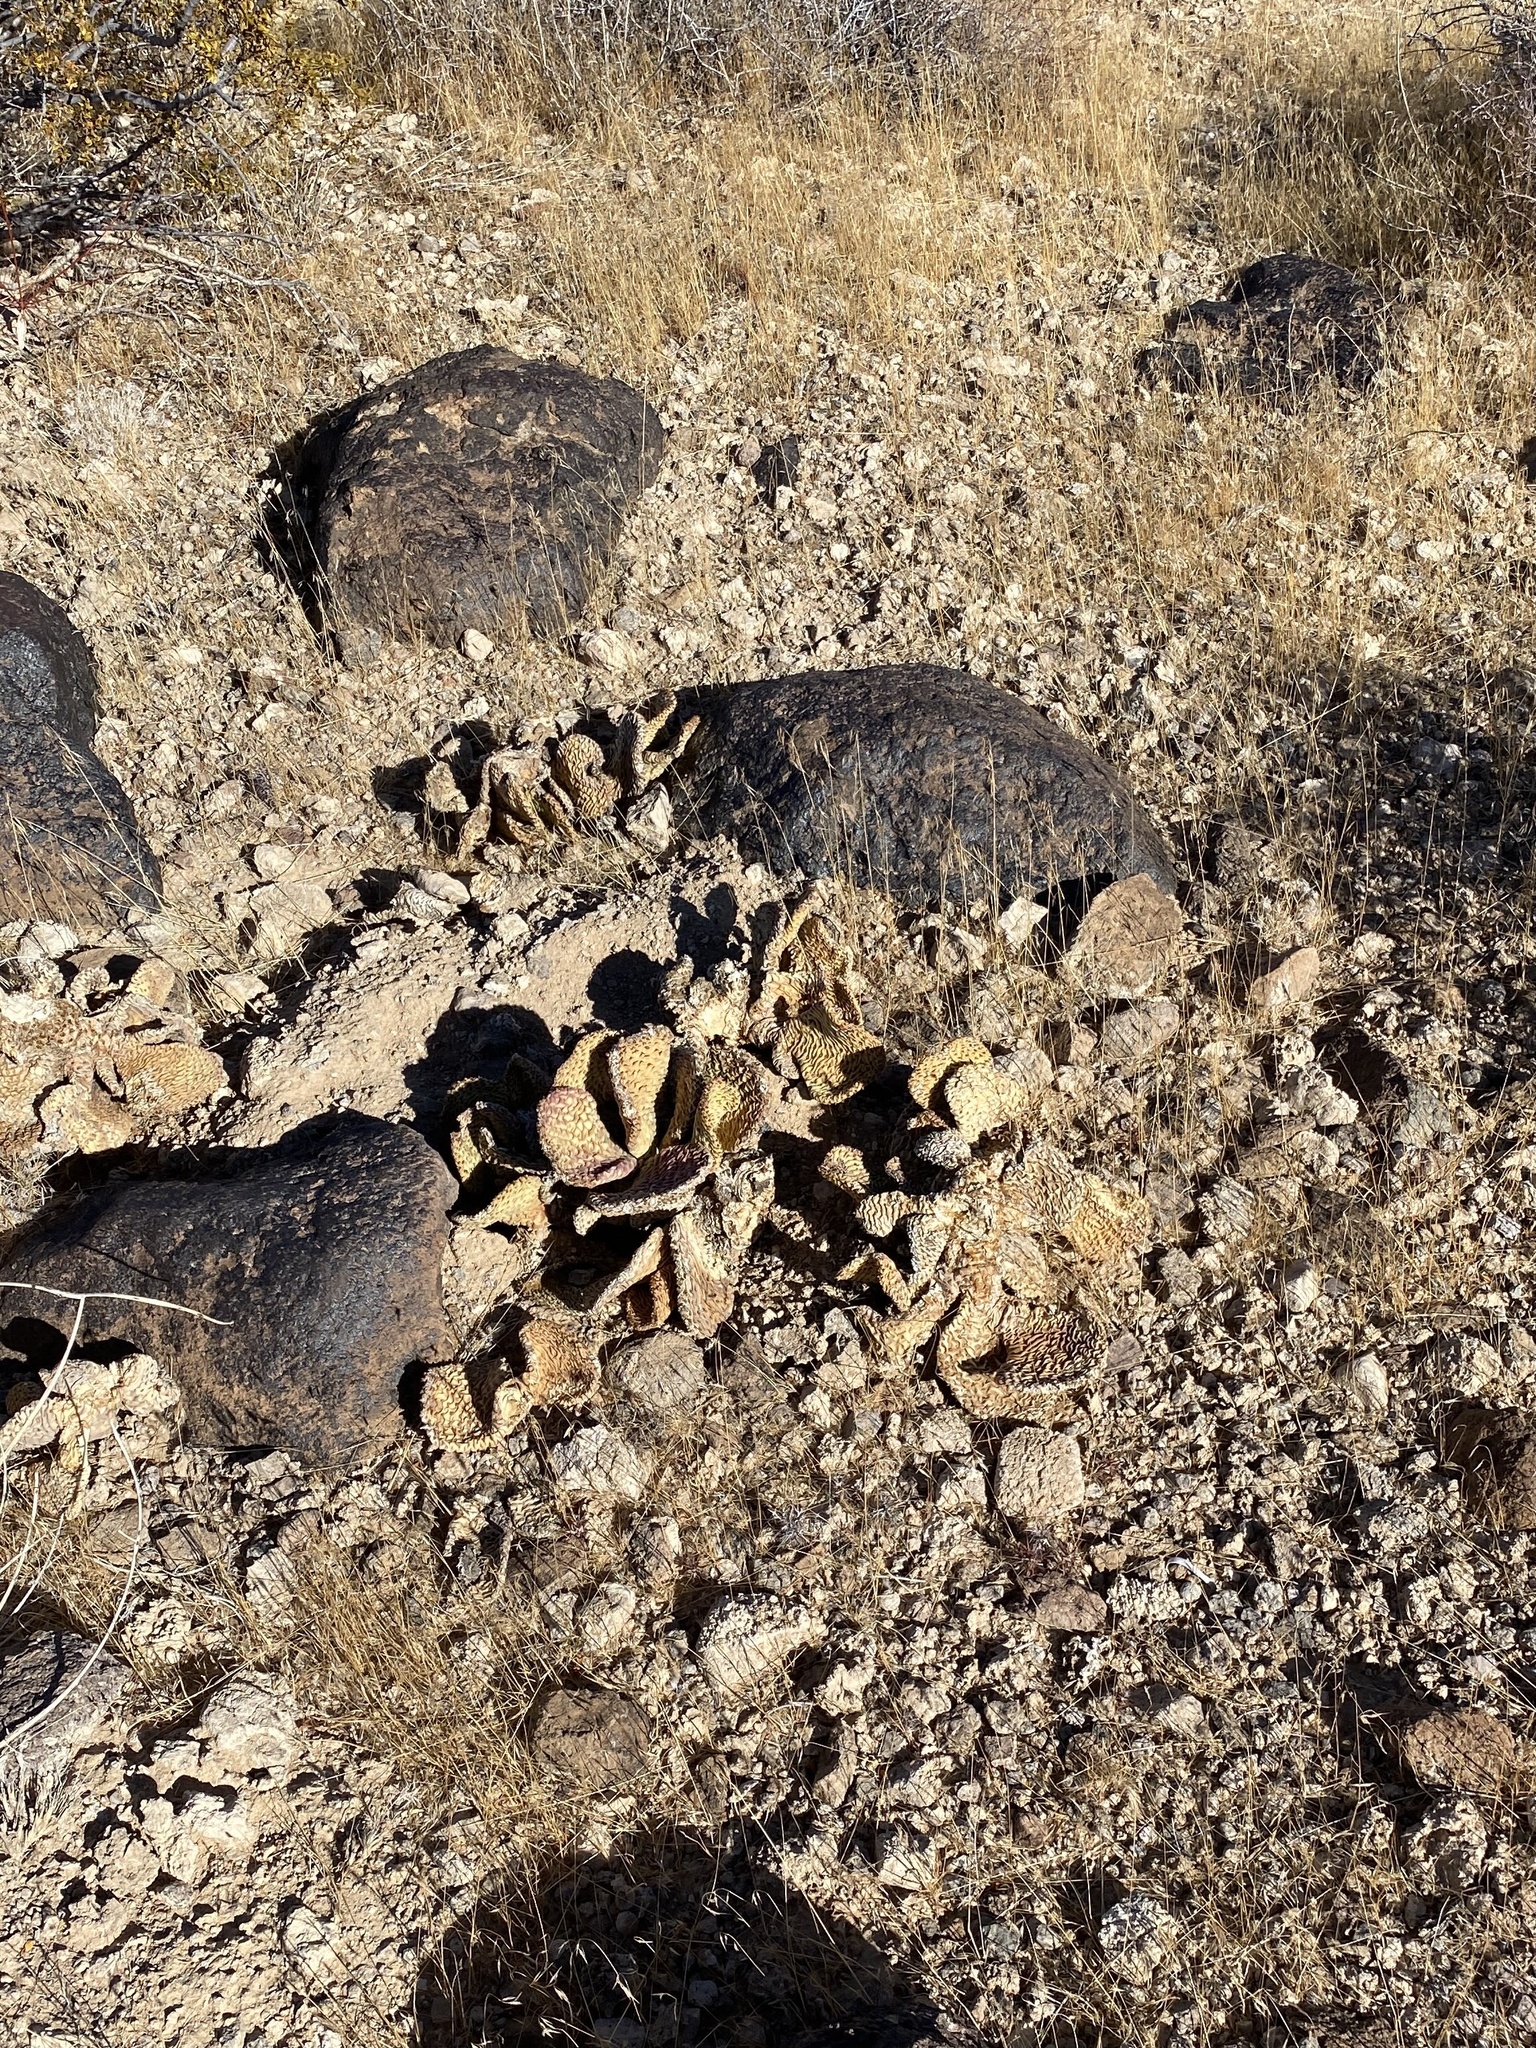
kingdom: Plantae
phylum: Tracheophyta
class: Magnoliopsida
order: Caryophyllales
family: Cactaceae
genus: Opuntia
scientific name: Opuntia basilaris
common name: Beavertail prickly-pear
